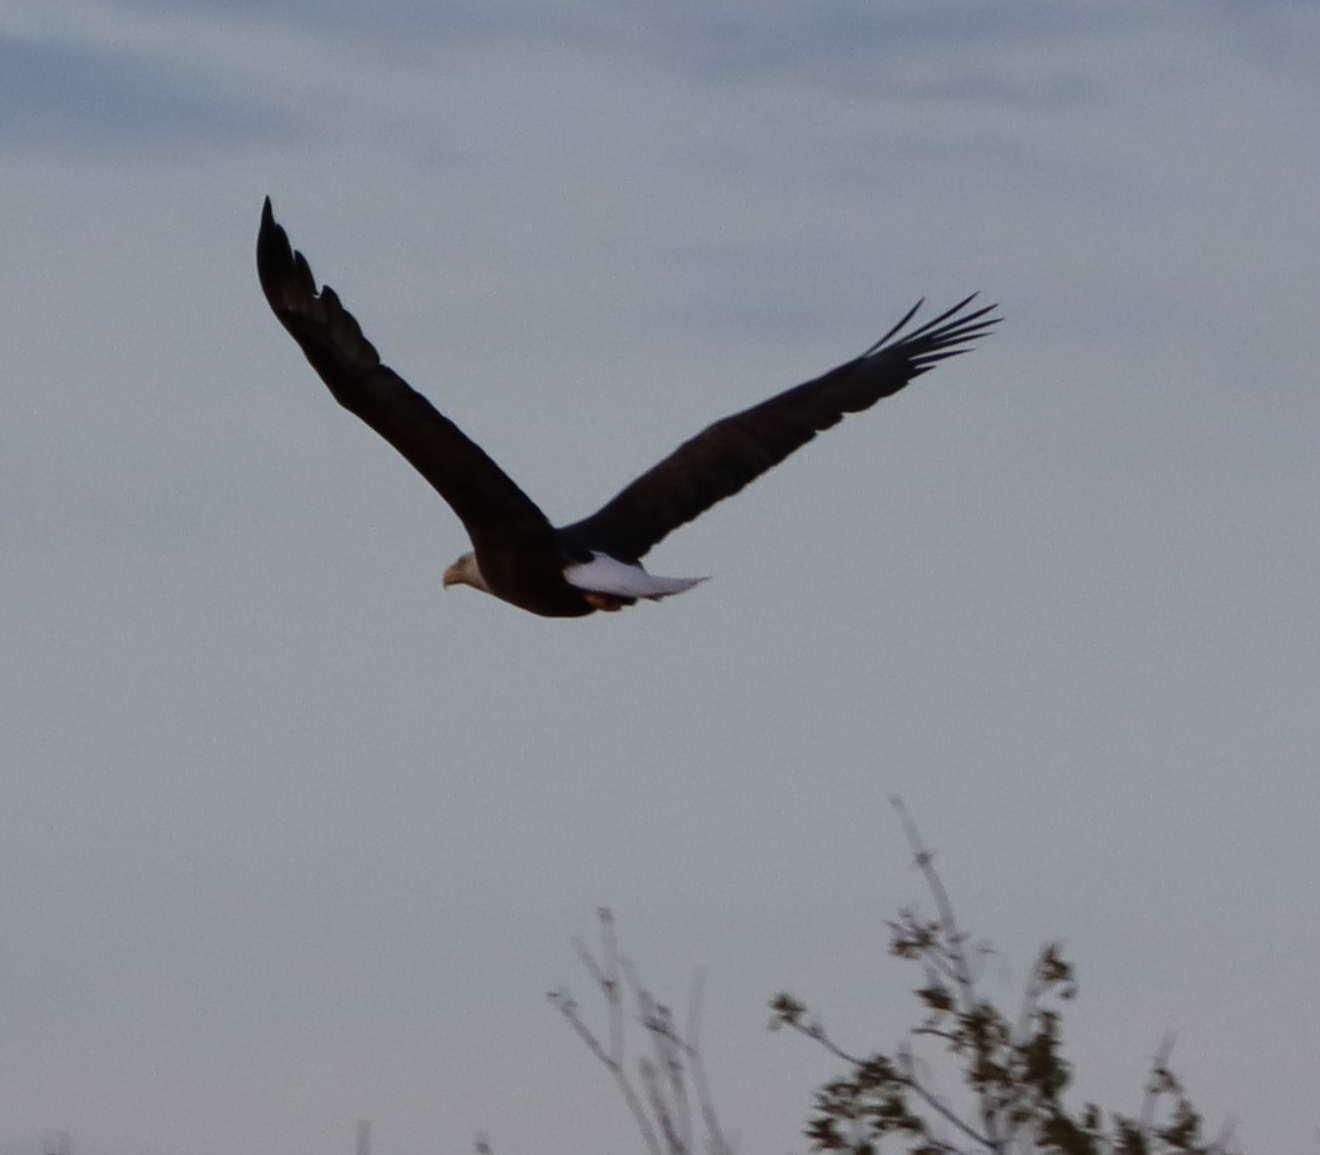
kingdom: Animalia
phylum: Chordata
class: Aves
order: Accipitriformes
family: Accipitridae
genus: Haliaeetus
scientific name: Haliaeetus leucocephalus
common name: Bald eagle
